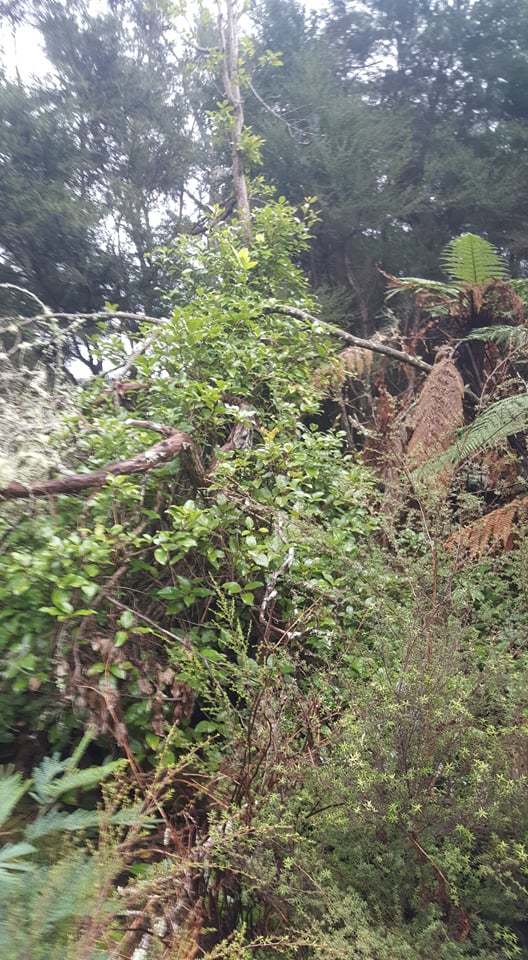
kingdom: Plantae
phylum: Tracheophyta
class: Magnoliopsida
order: Laurales
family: Lauraceae
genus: Litsea
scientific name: Litsea calicaris
